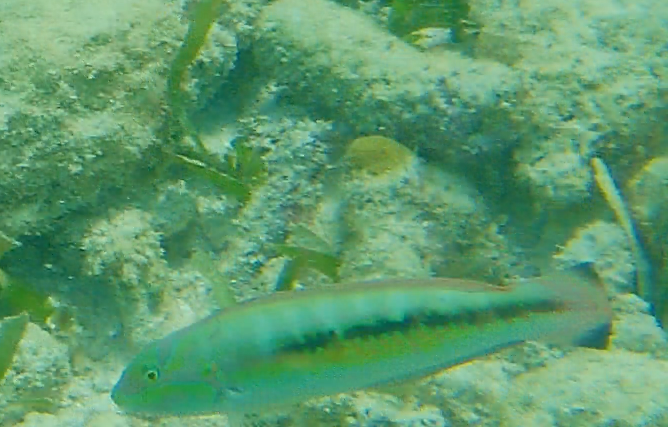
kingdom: Animalia
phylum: Chordata
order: Perciformes
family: Labridae
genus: Halichoeres
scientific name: Halichoeres bivittatus
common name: Slippery dick
